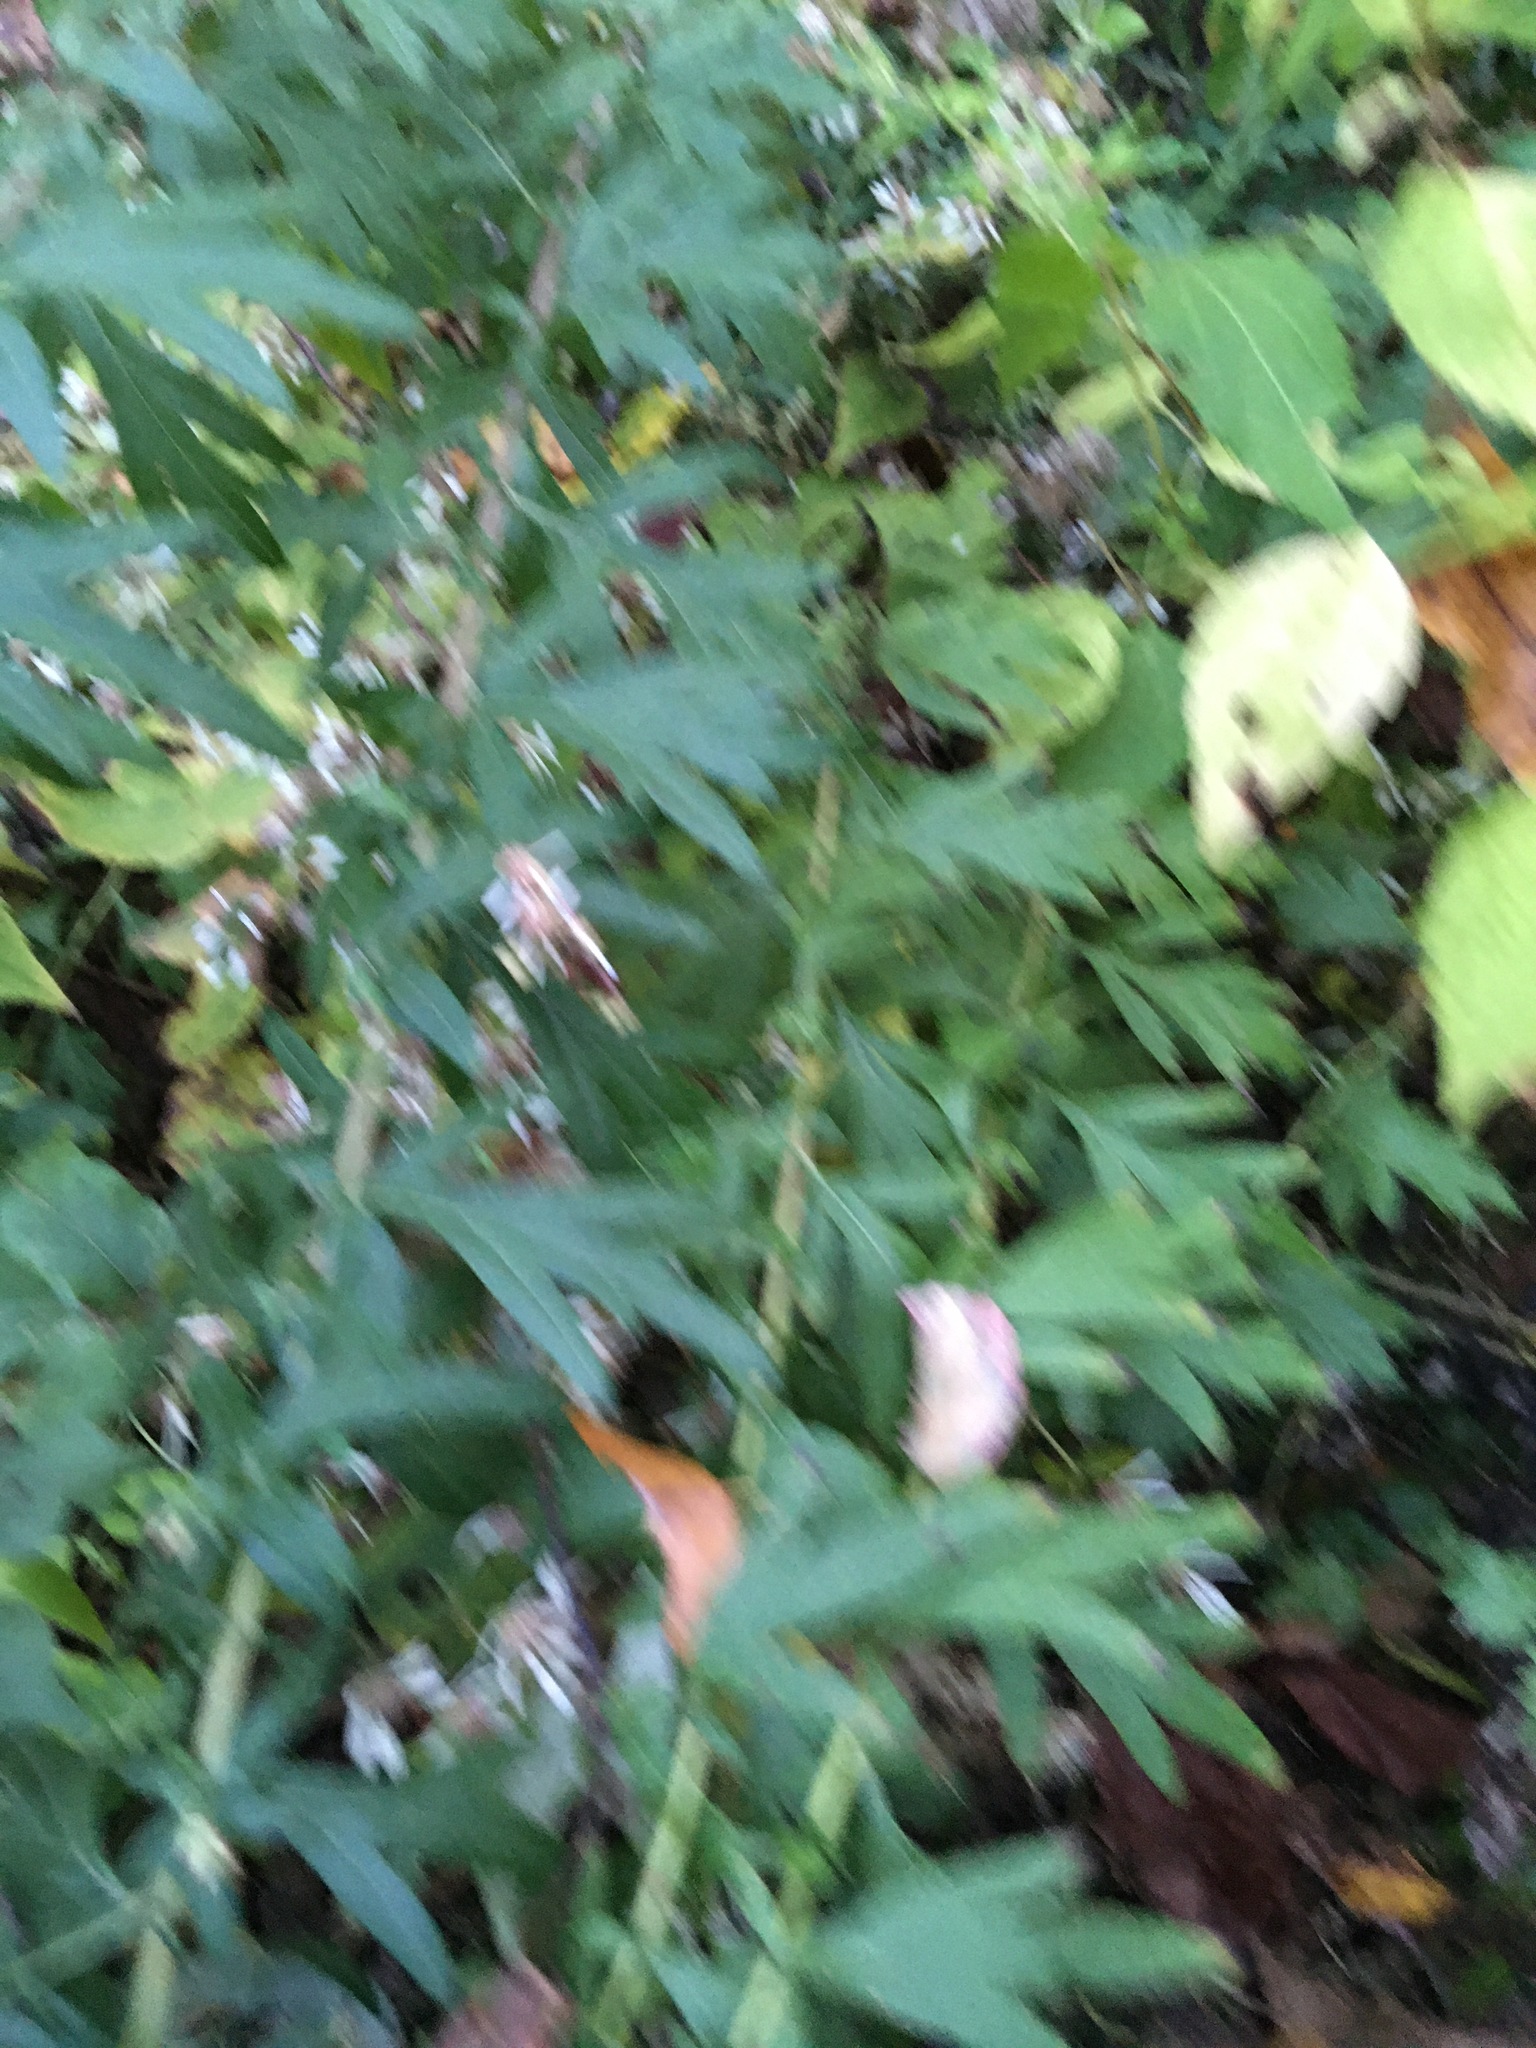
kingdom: Plantae
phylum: Tracheophyta
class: Magnoliopsida
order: Asterales
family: Asteraceae
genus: Artemisia
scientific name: Artemisia vulgaris
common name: Mugwort
